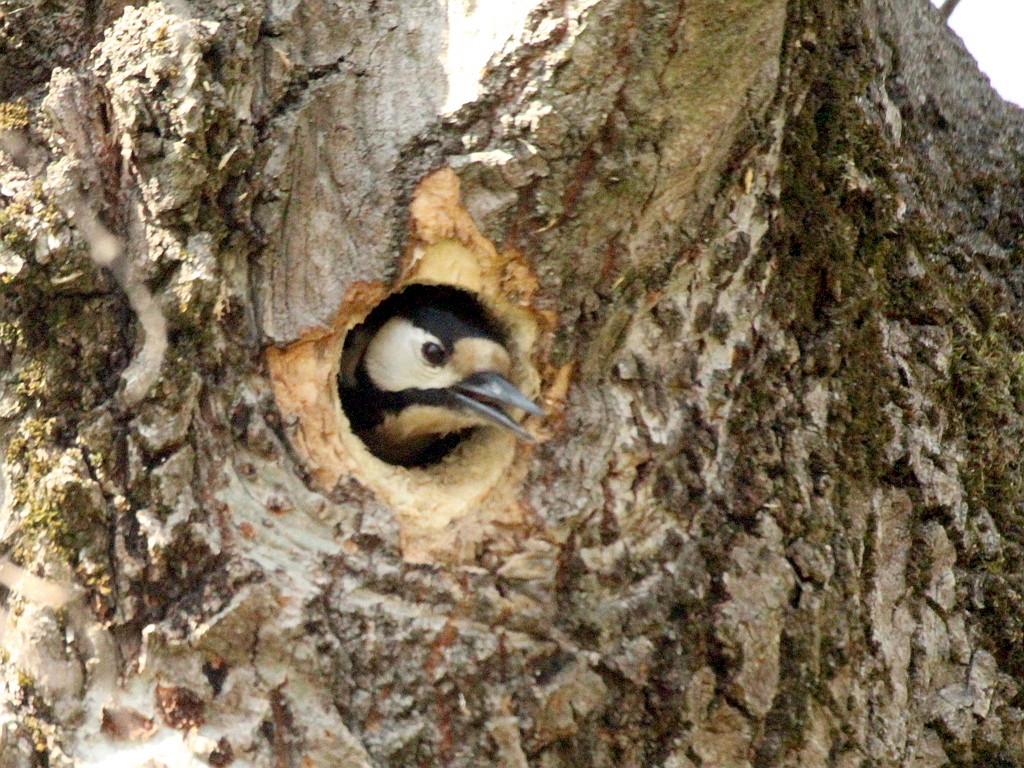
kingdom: Animalia
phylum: Chordata
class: Aves
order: Piciformes
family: Picidae
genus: Dendrocopos
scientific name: Dendrocopos major
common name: Great spotted woodpecker
